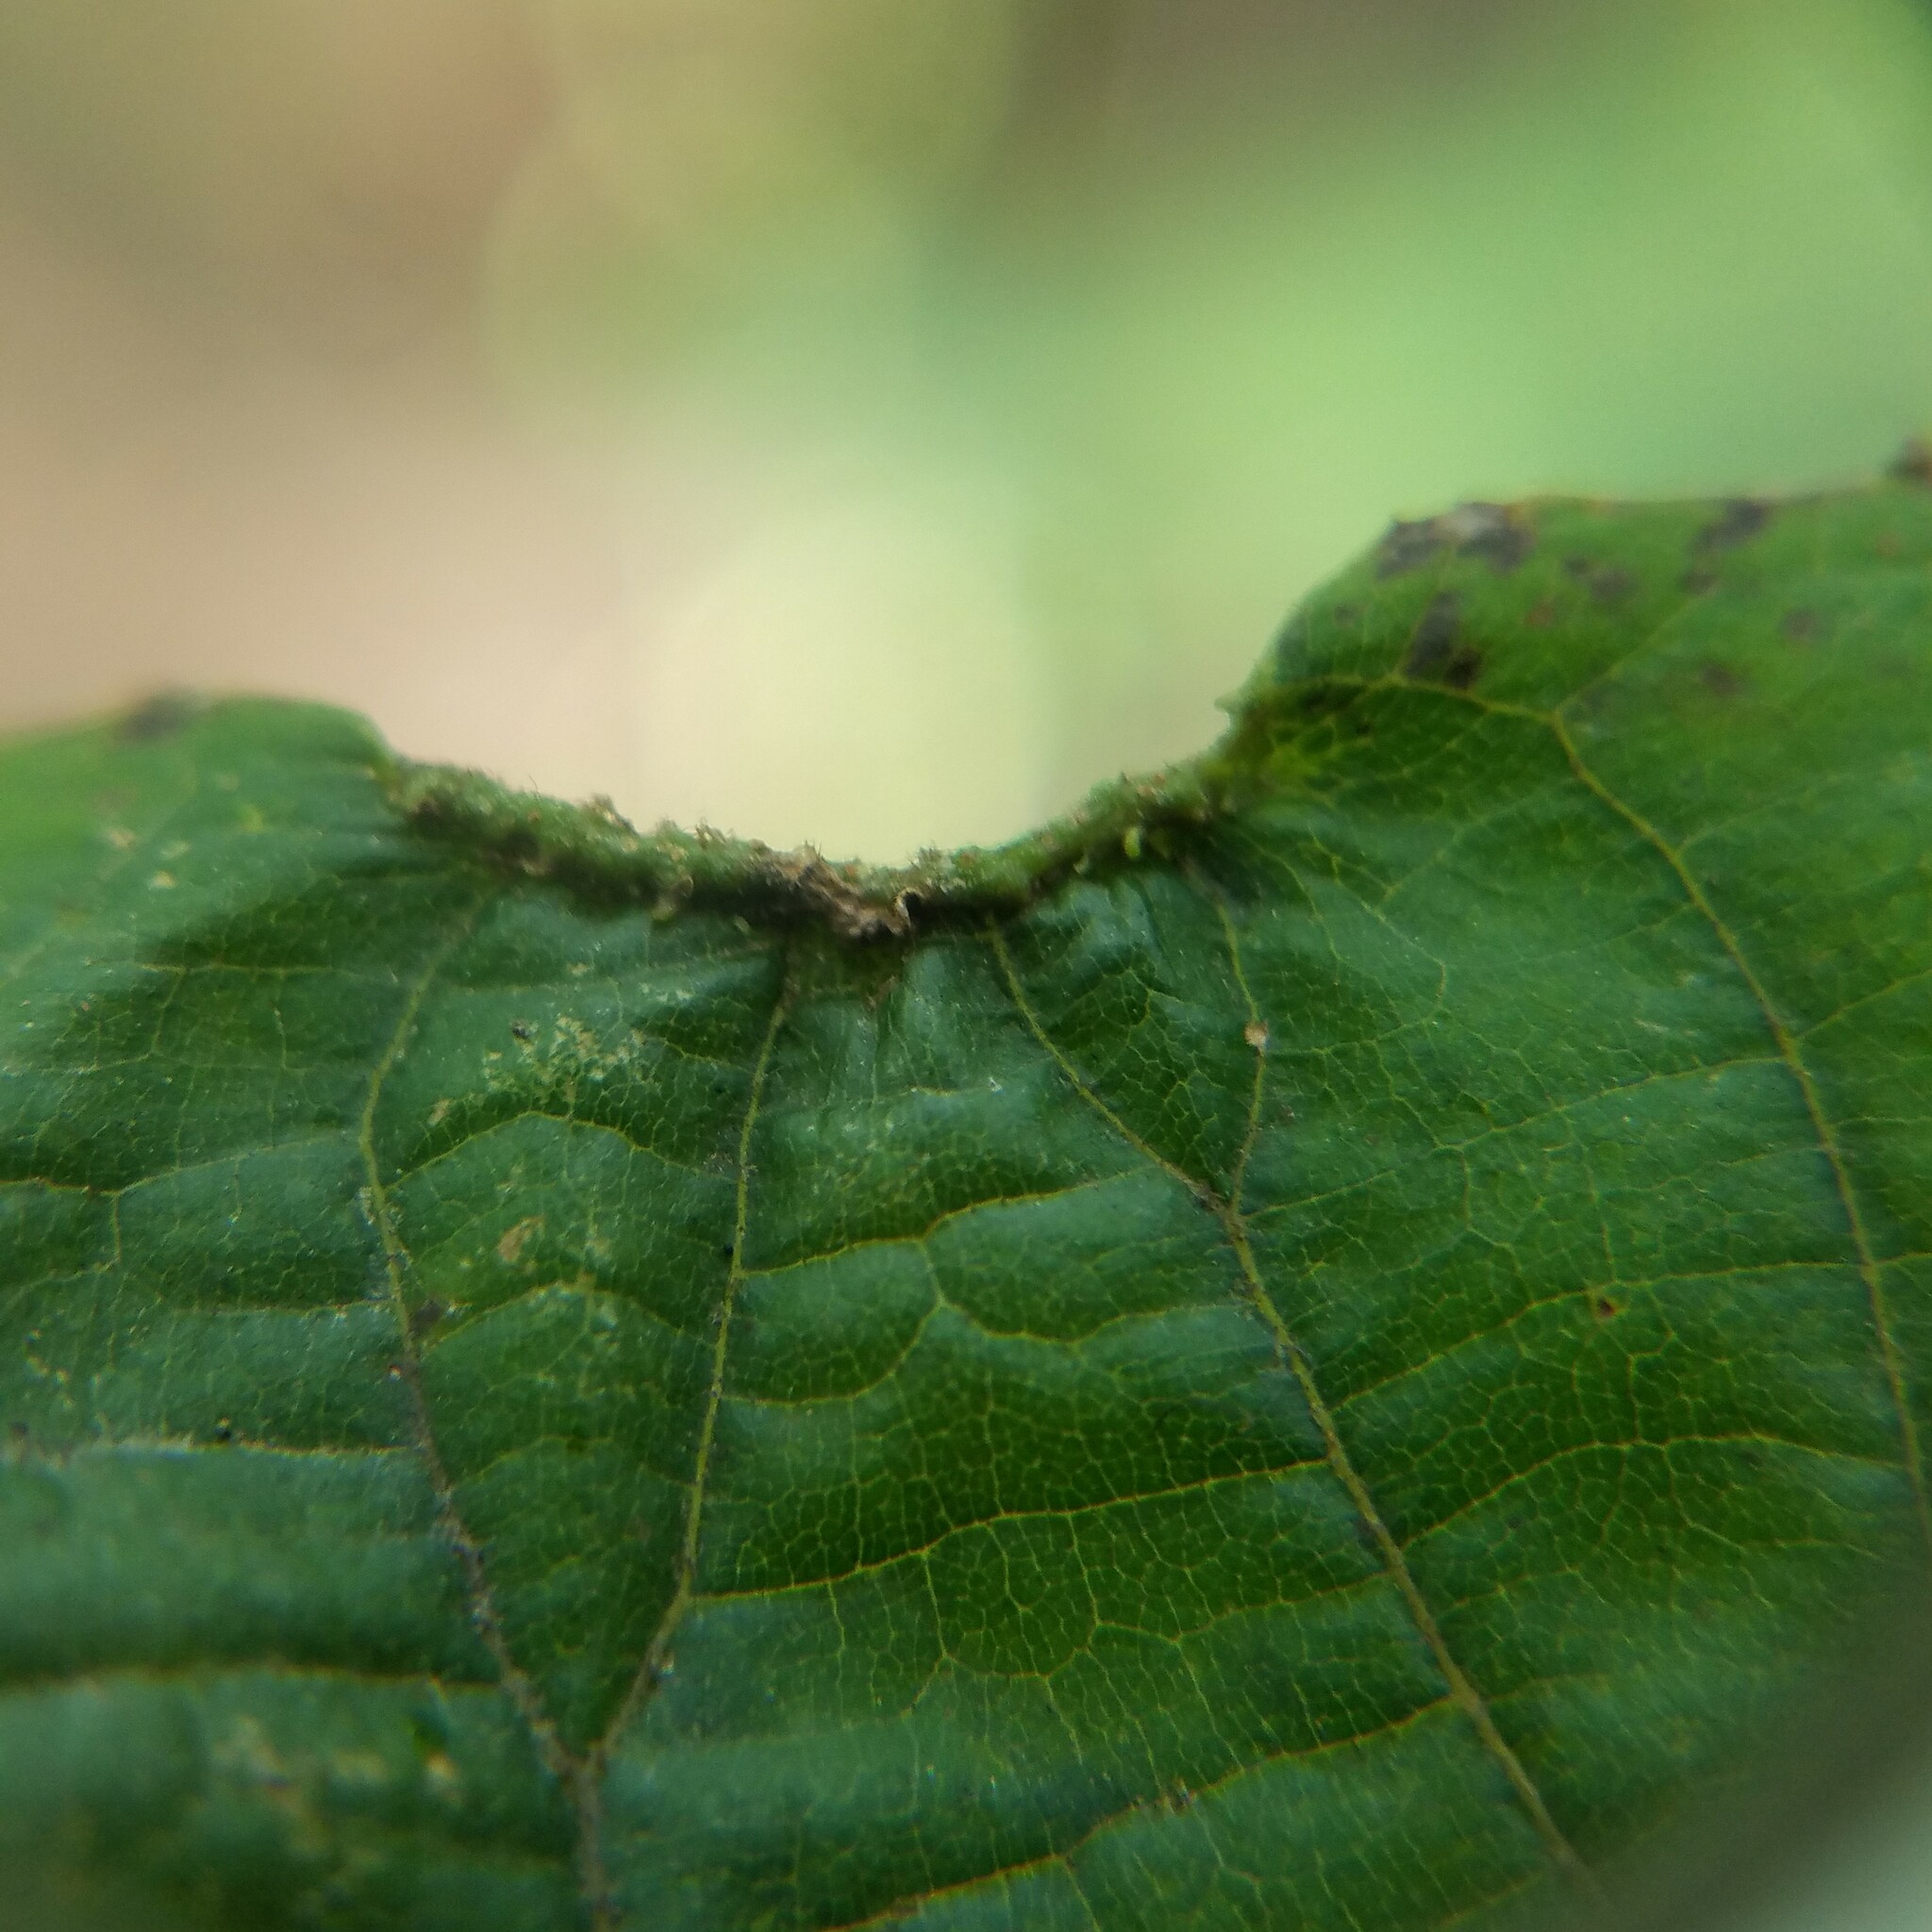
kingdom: Animalia
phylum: Arthropoda
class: Arachnida
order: Trombidiformes
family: Eriophyidae
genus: Aceria
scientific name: Aceria carlinae
